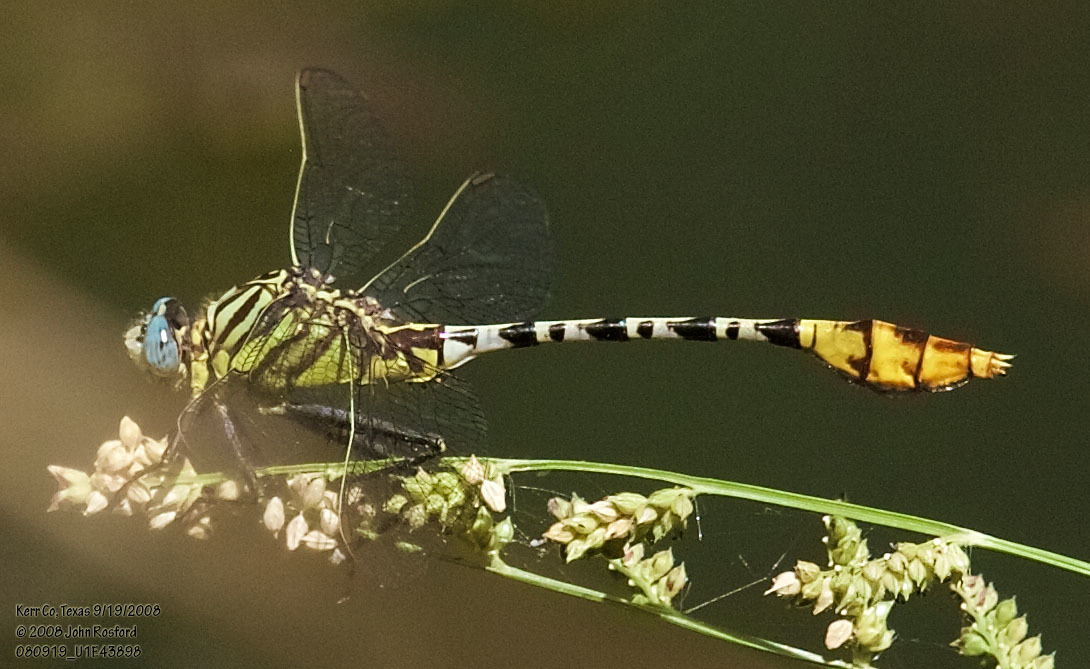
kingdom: Animalia
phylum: Arthropoda
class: Insecta
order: Odonata
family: Gomphidae
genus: Dromogomphus
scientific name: Dromogomphus spoliatus
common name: Flag-tailed spinyleg
